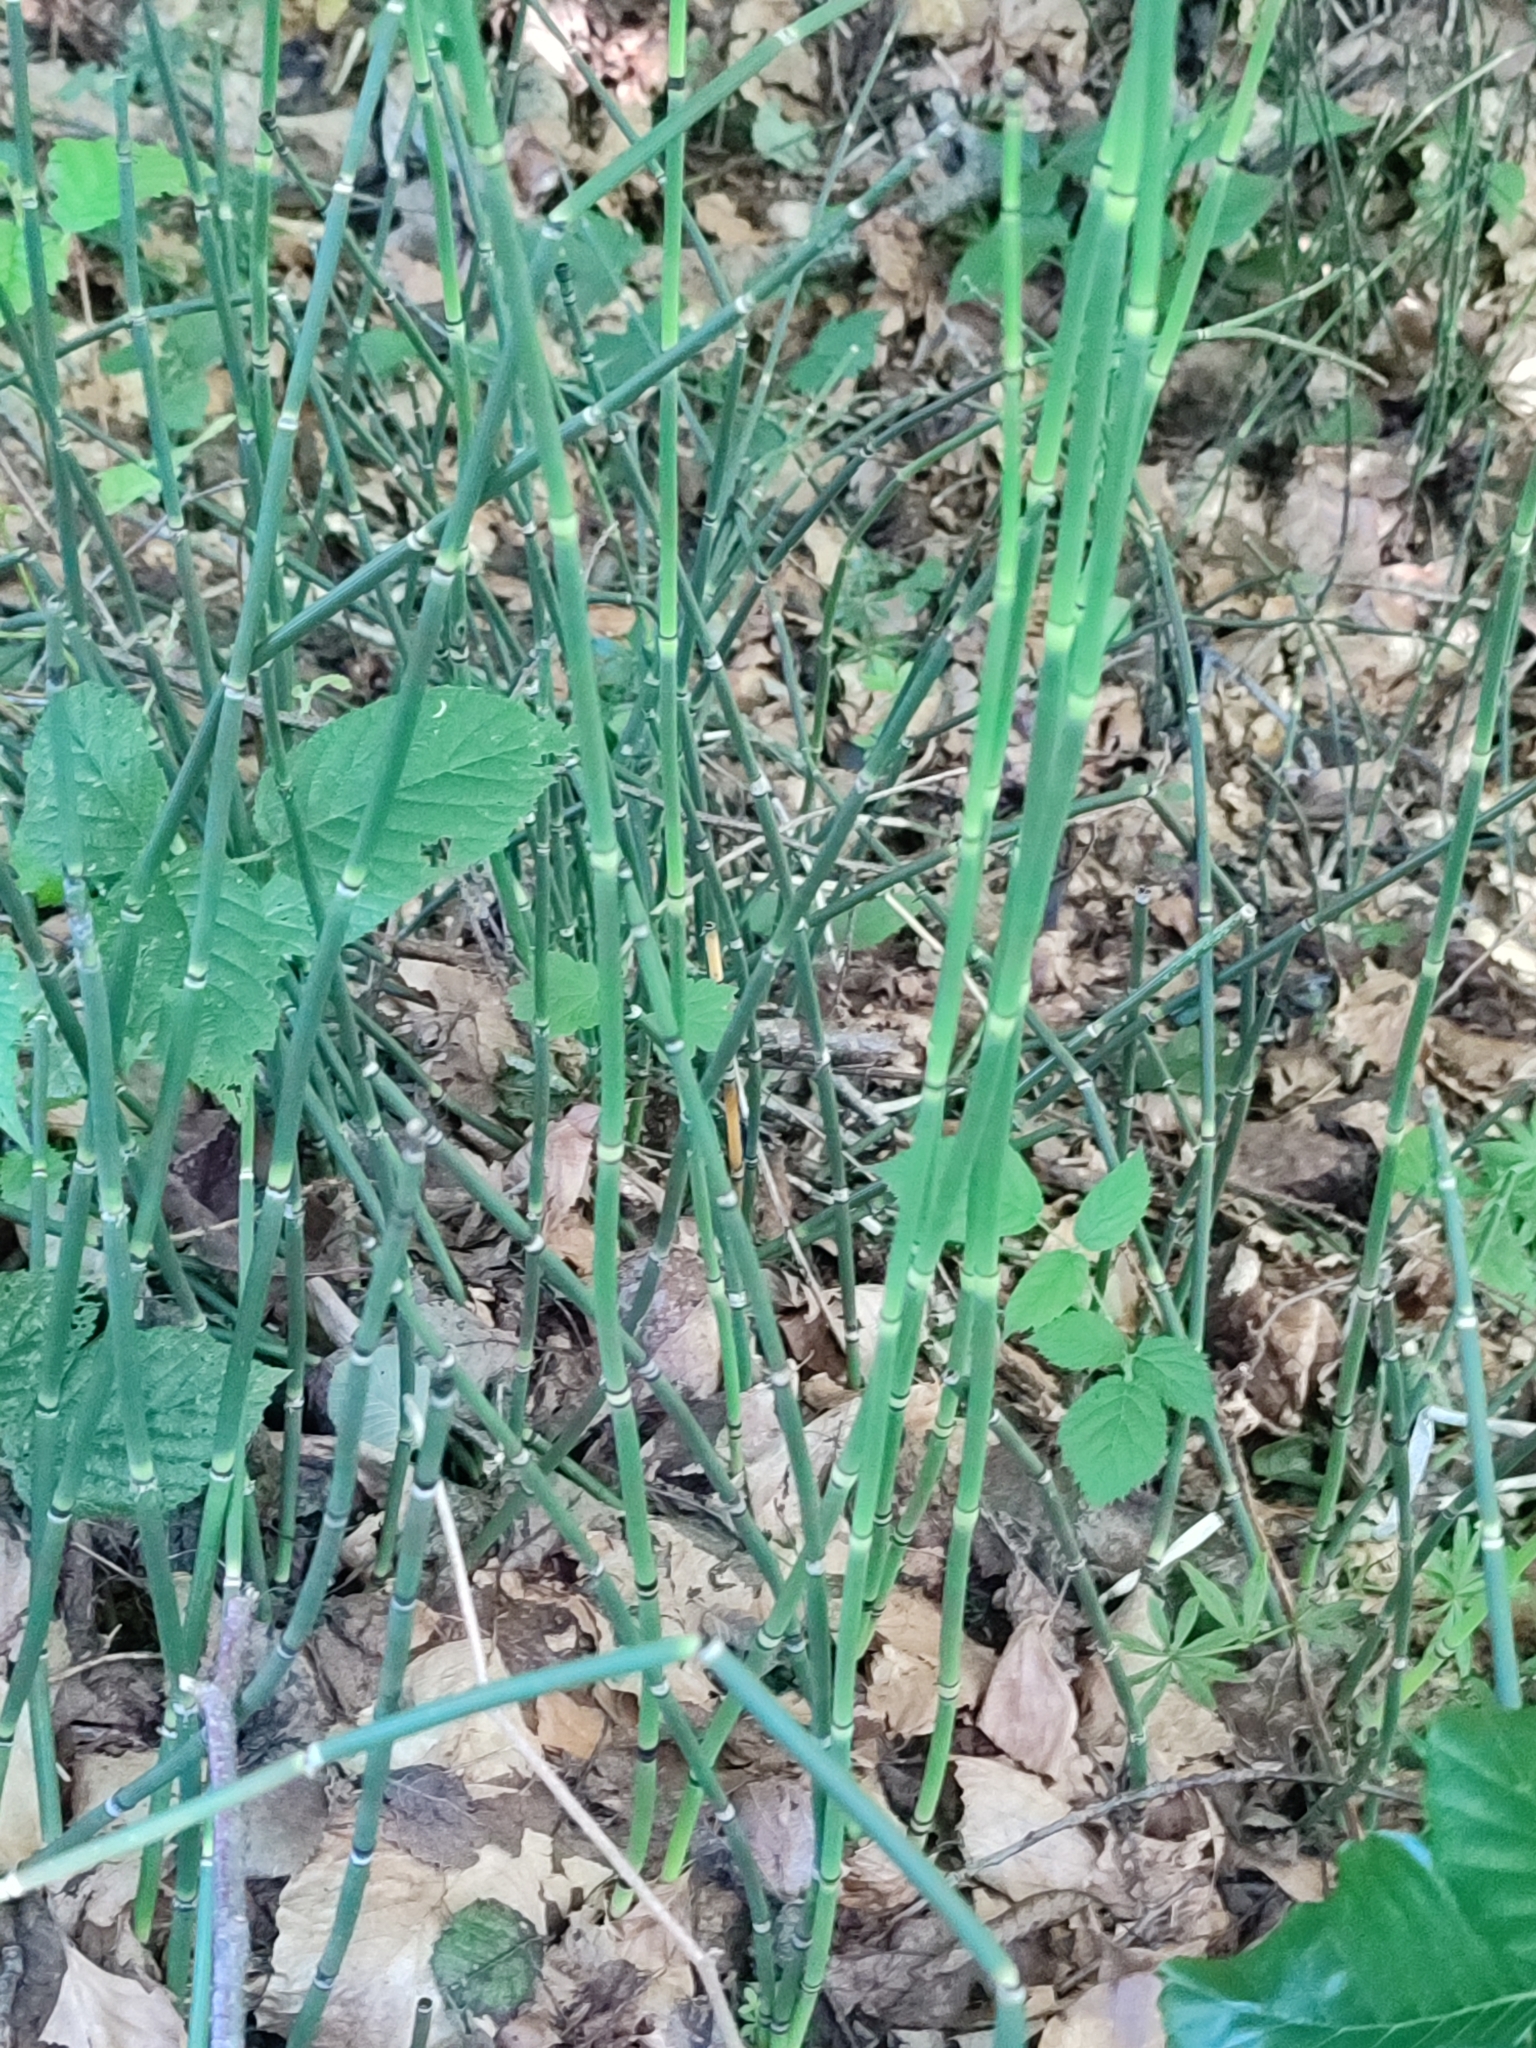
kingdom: Plantae
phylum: Tracheophyta
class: Polypodiopsida
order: Equisetales
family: Equisetaceae
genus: Equisetum
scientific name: Equisetum hyemale
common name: Rough horsetail
